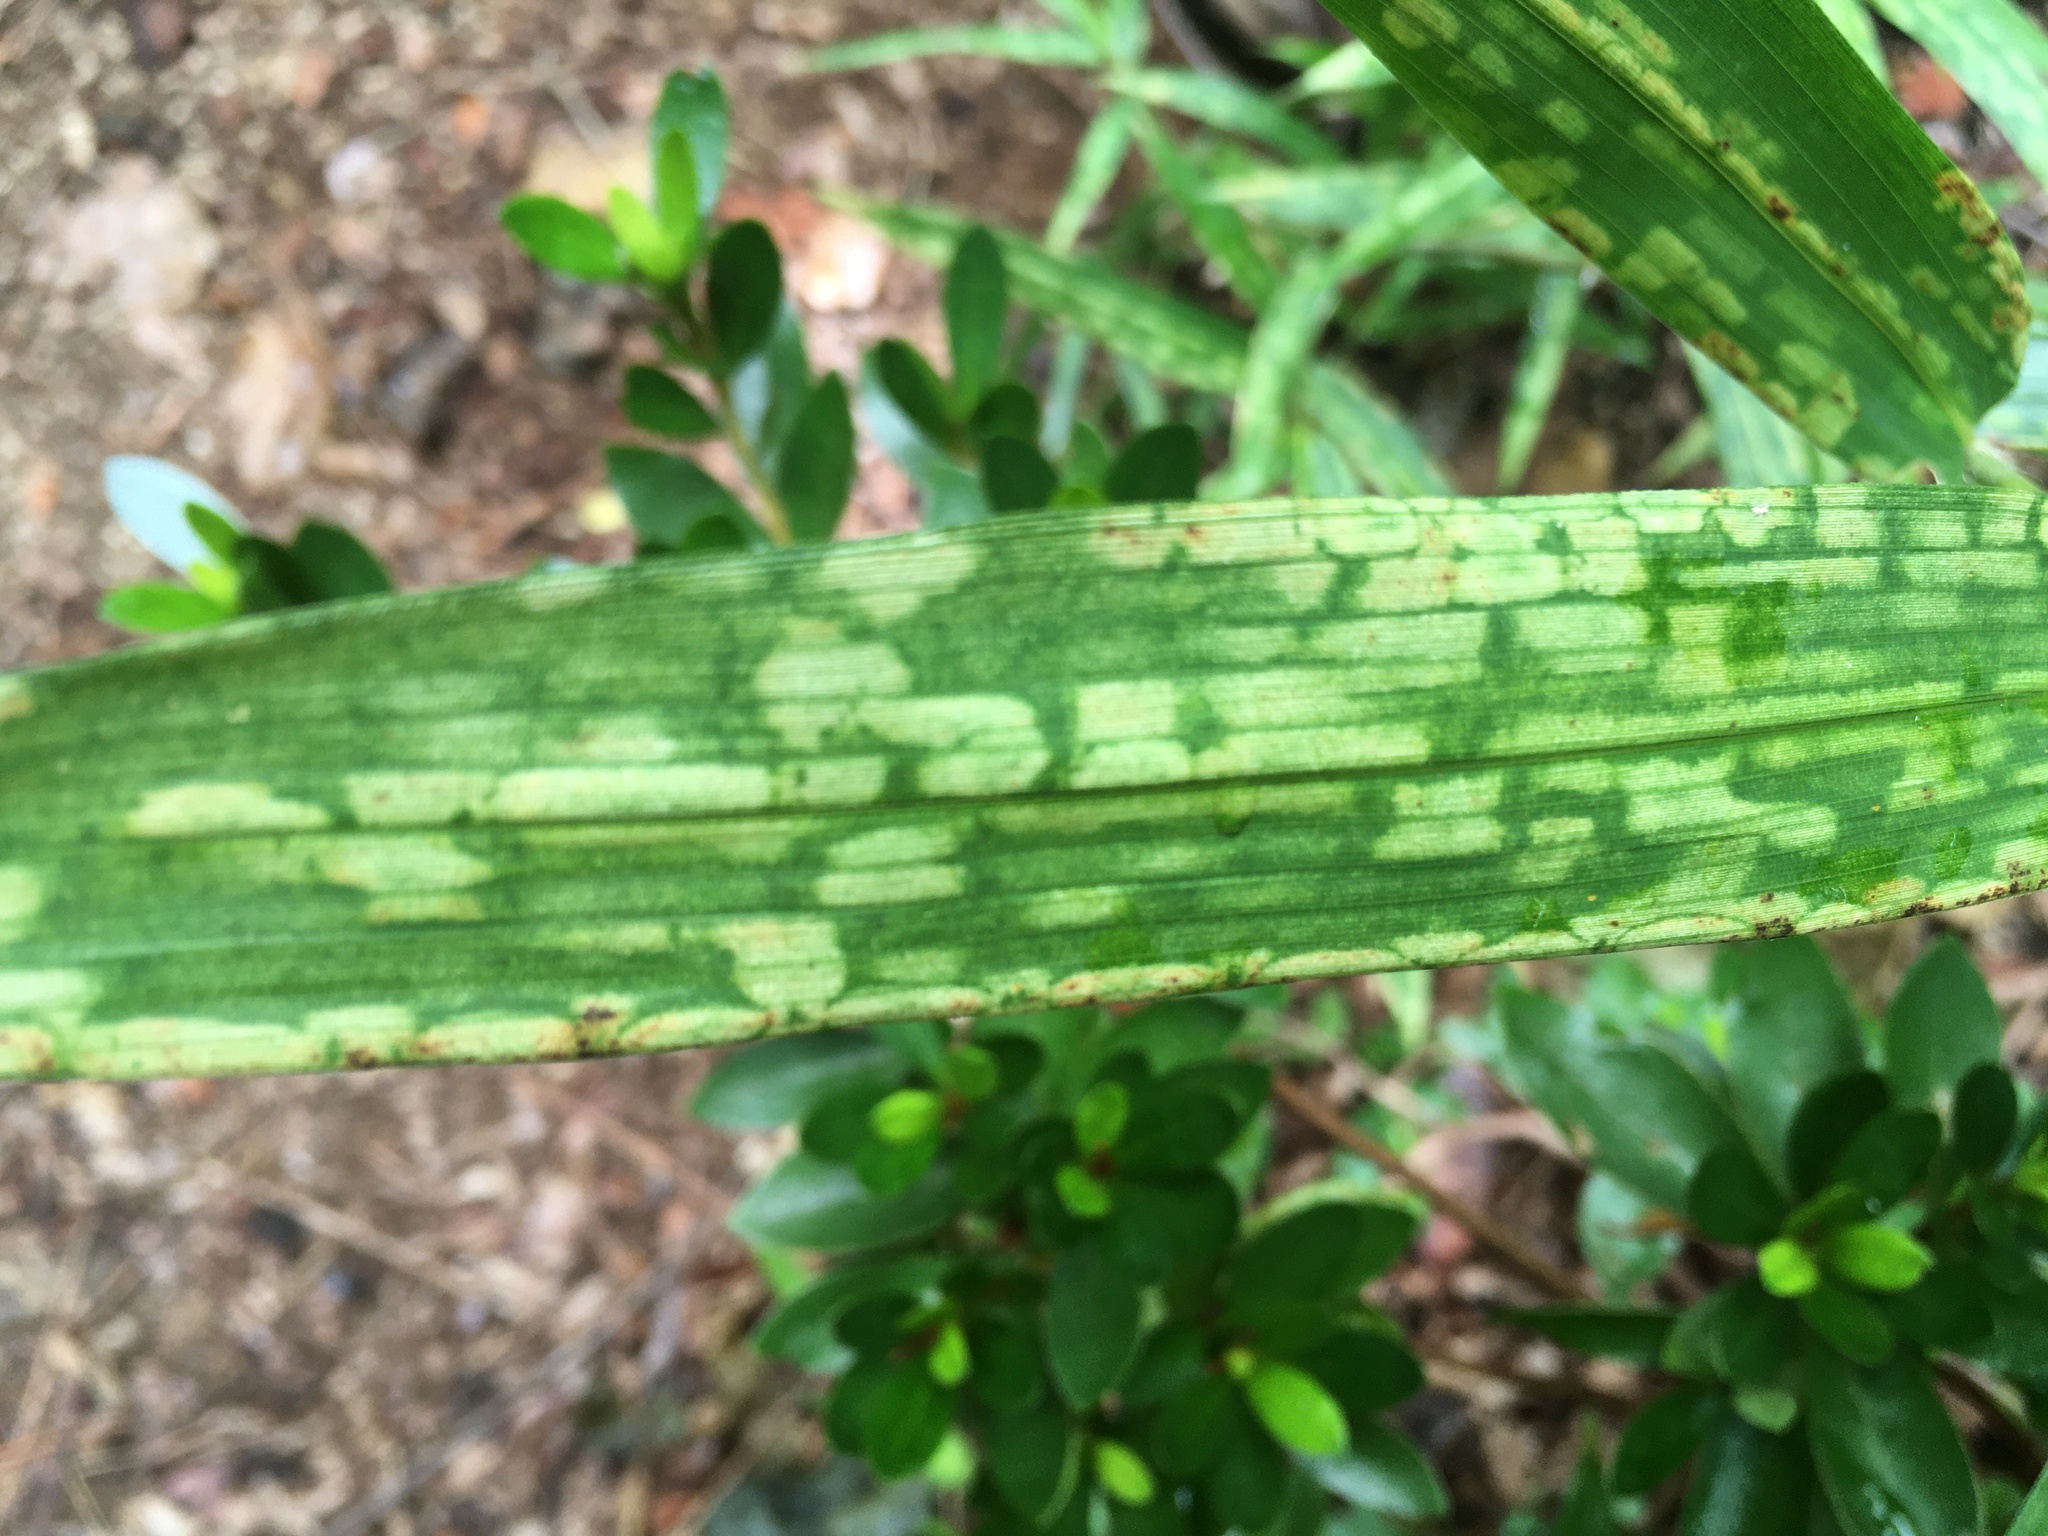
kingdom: Animalia
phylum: Arthropoda
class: Arachnida
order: Trombidiformes
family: Tetranychidae
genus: Stigmaeopsis
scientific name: Stigmaeopsis
